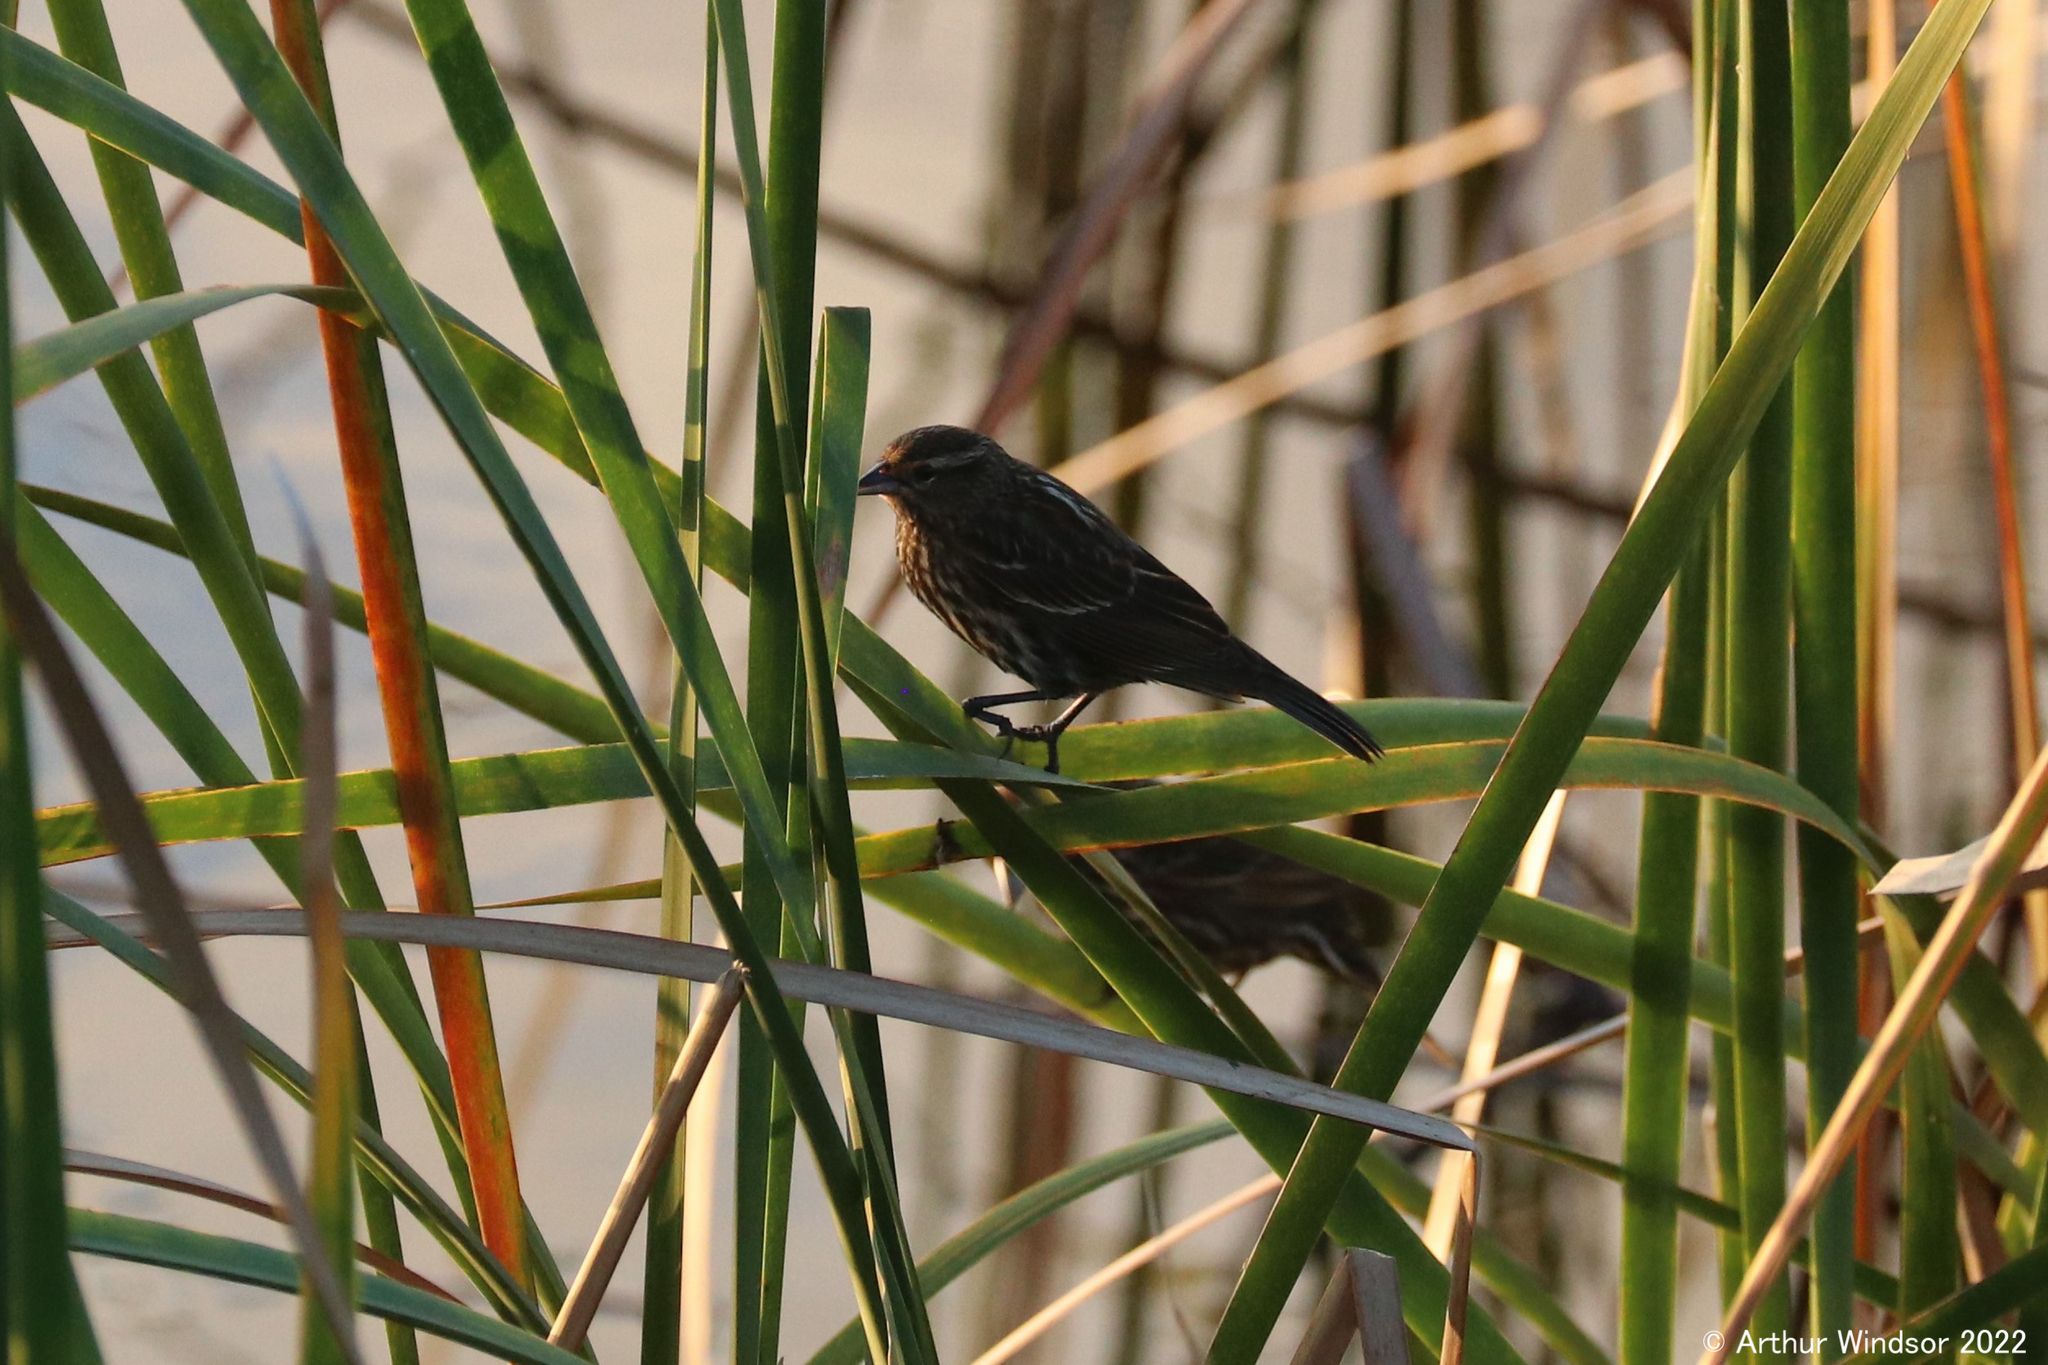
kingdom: Animalia
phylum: Chordata
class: Aves
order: Passeriformes
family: Icteridae
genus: Agelaius
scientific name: Agelaius phoeniceus
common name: Red-winged blackbird
